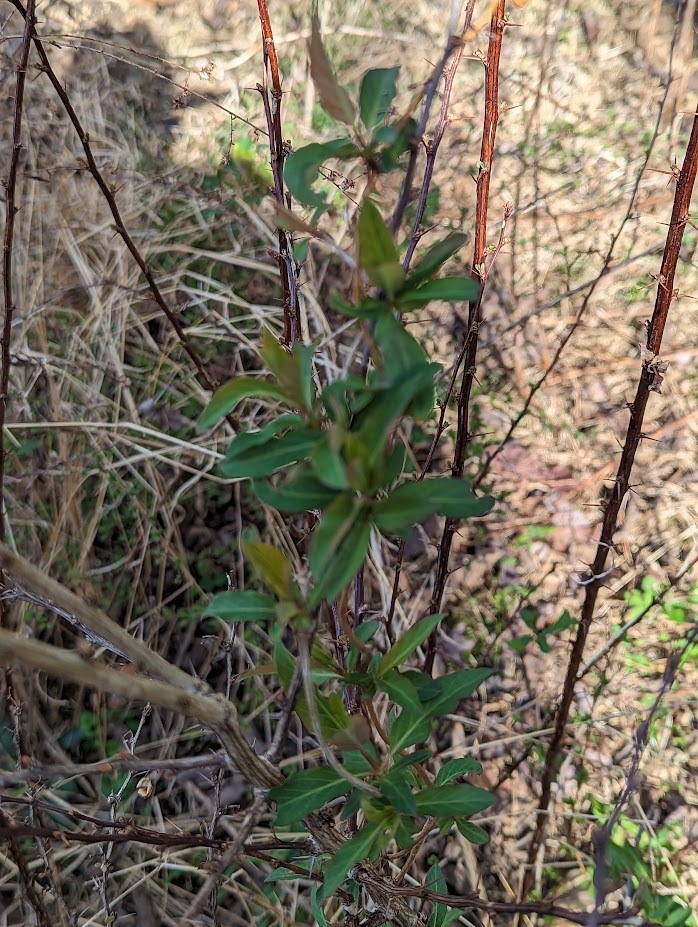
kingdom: Plantae
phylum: Tracheophyta
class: Magnoliopsida
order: Dipsacales
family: Caprifoliaceae
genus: Lonicera
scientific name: Lonicera japonica
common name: Japanese honeysuckle
